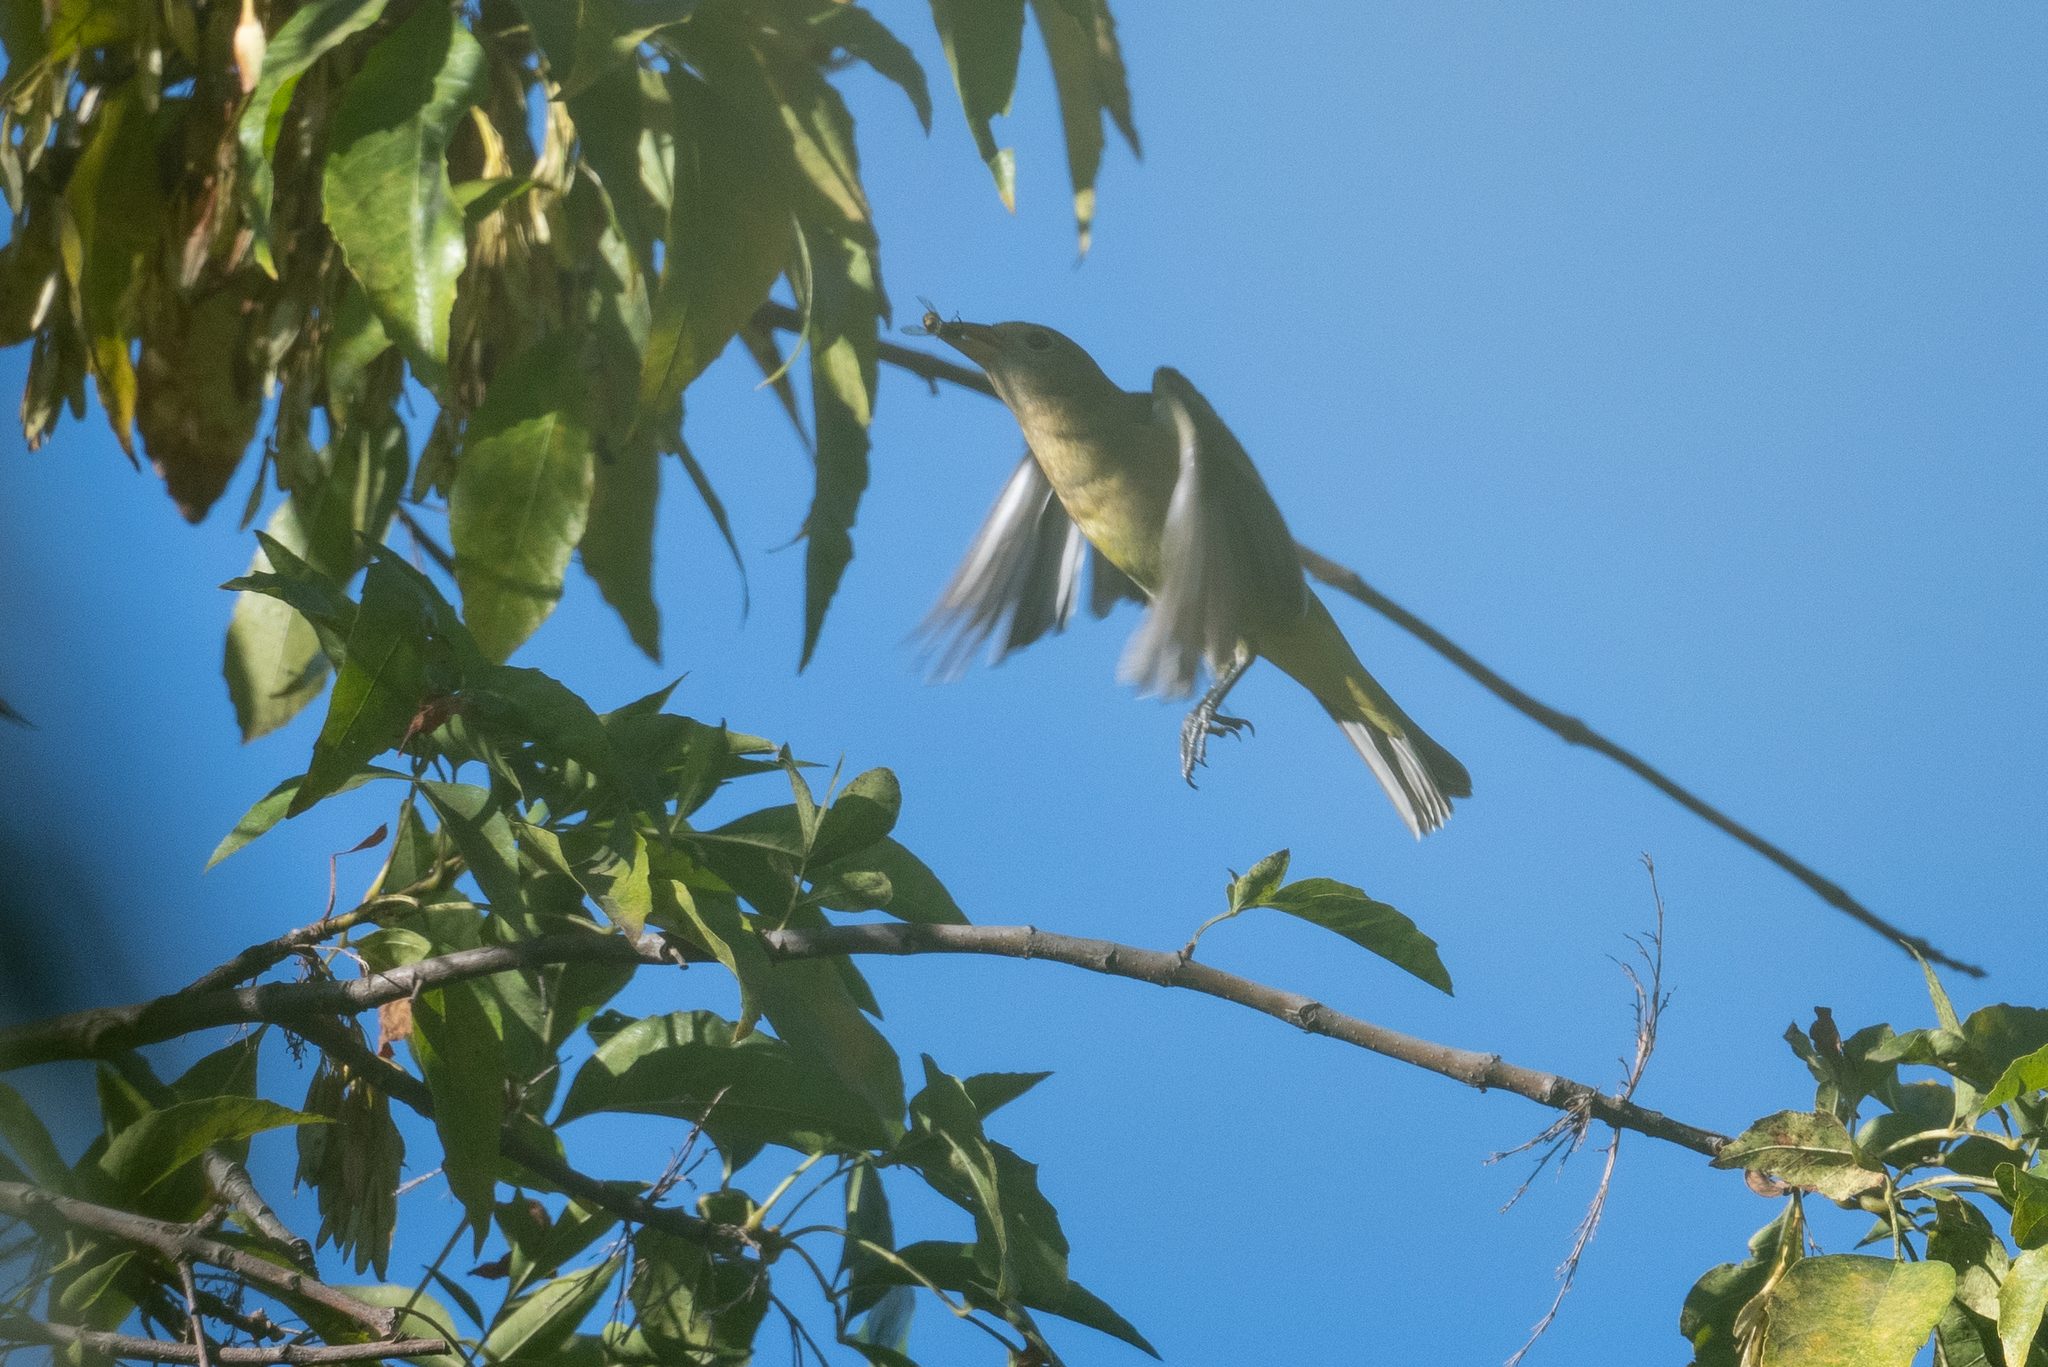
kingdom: Animalia
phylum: Chordata
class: Aves
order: Passeriformes
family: Cardinalidae
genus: Piranga
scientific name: Piranga ludoviciana
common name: Western tanager
